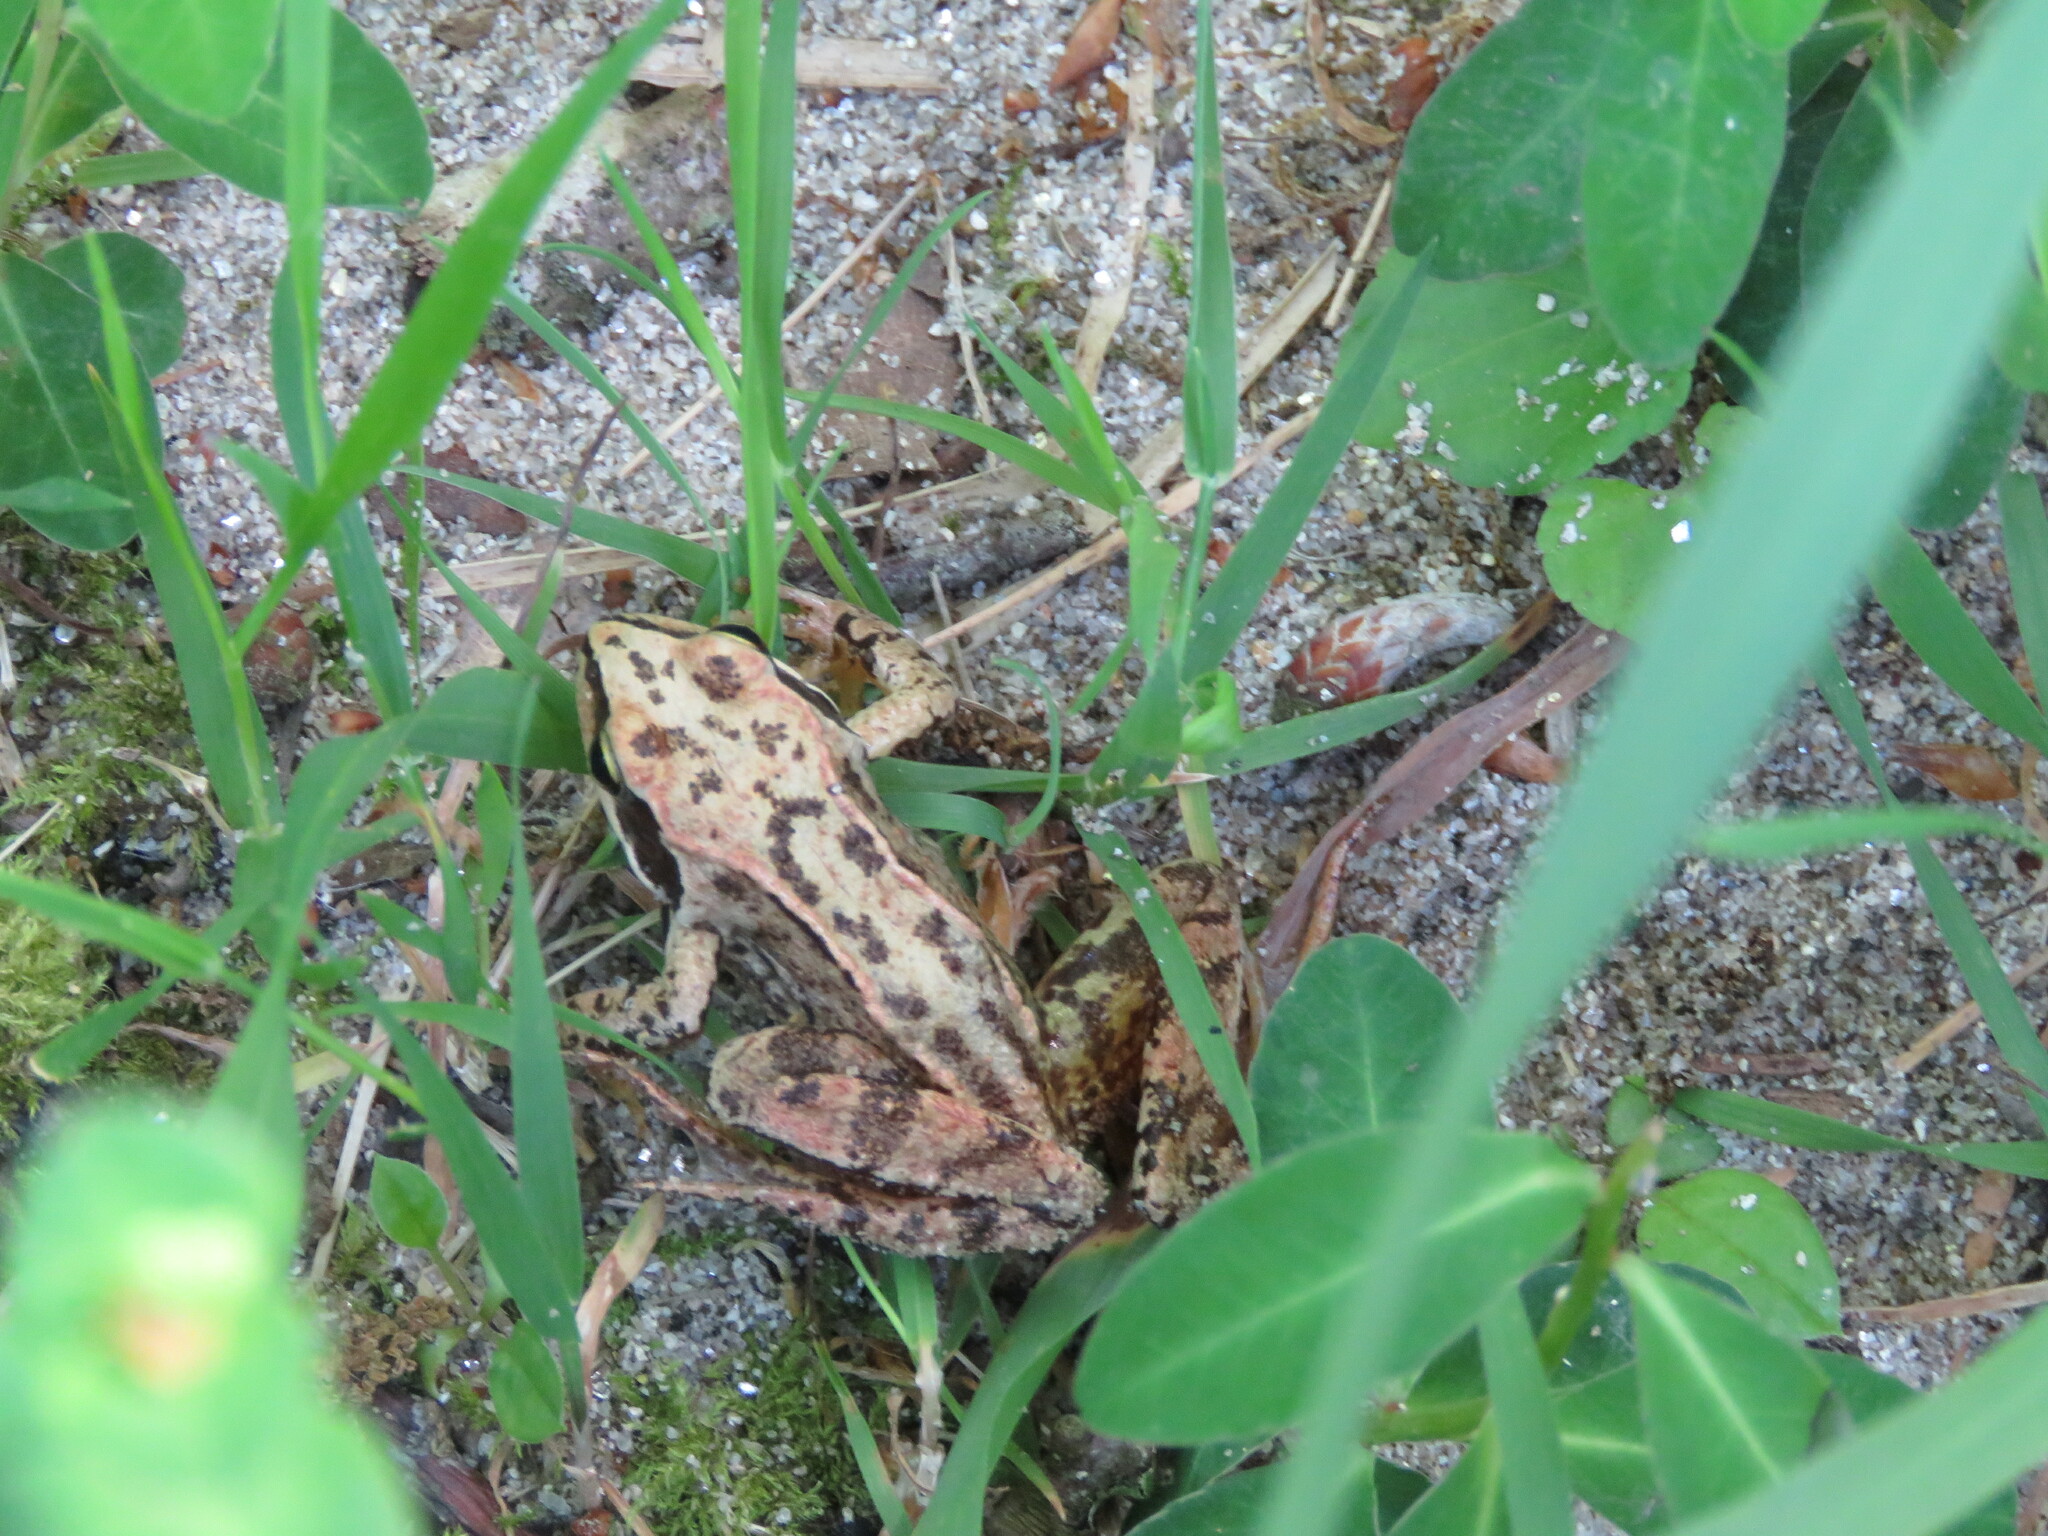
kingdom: Animalia
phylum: Chordata
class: Amphibia
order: Anura
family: Ranidae
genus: Rana
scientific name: Rana temporaria
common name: Common frog
